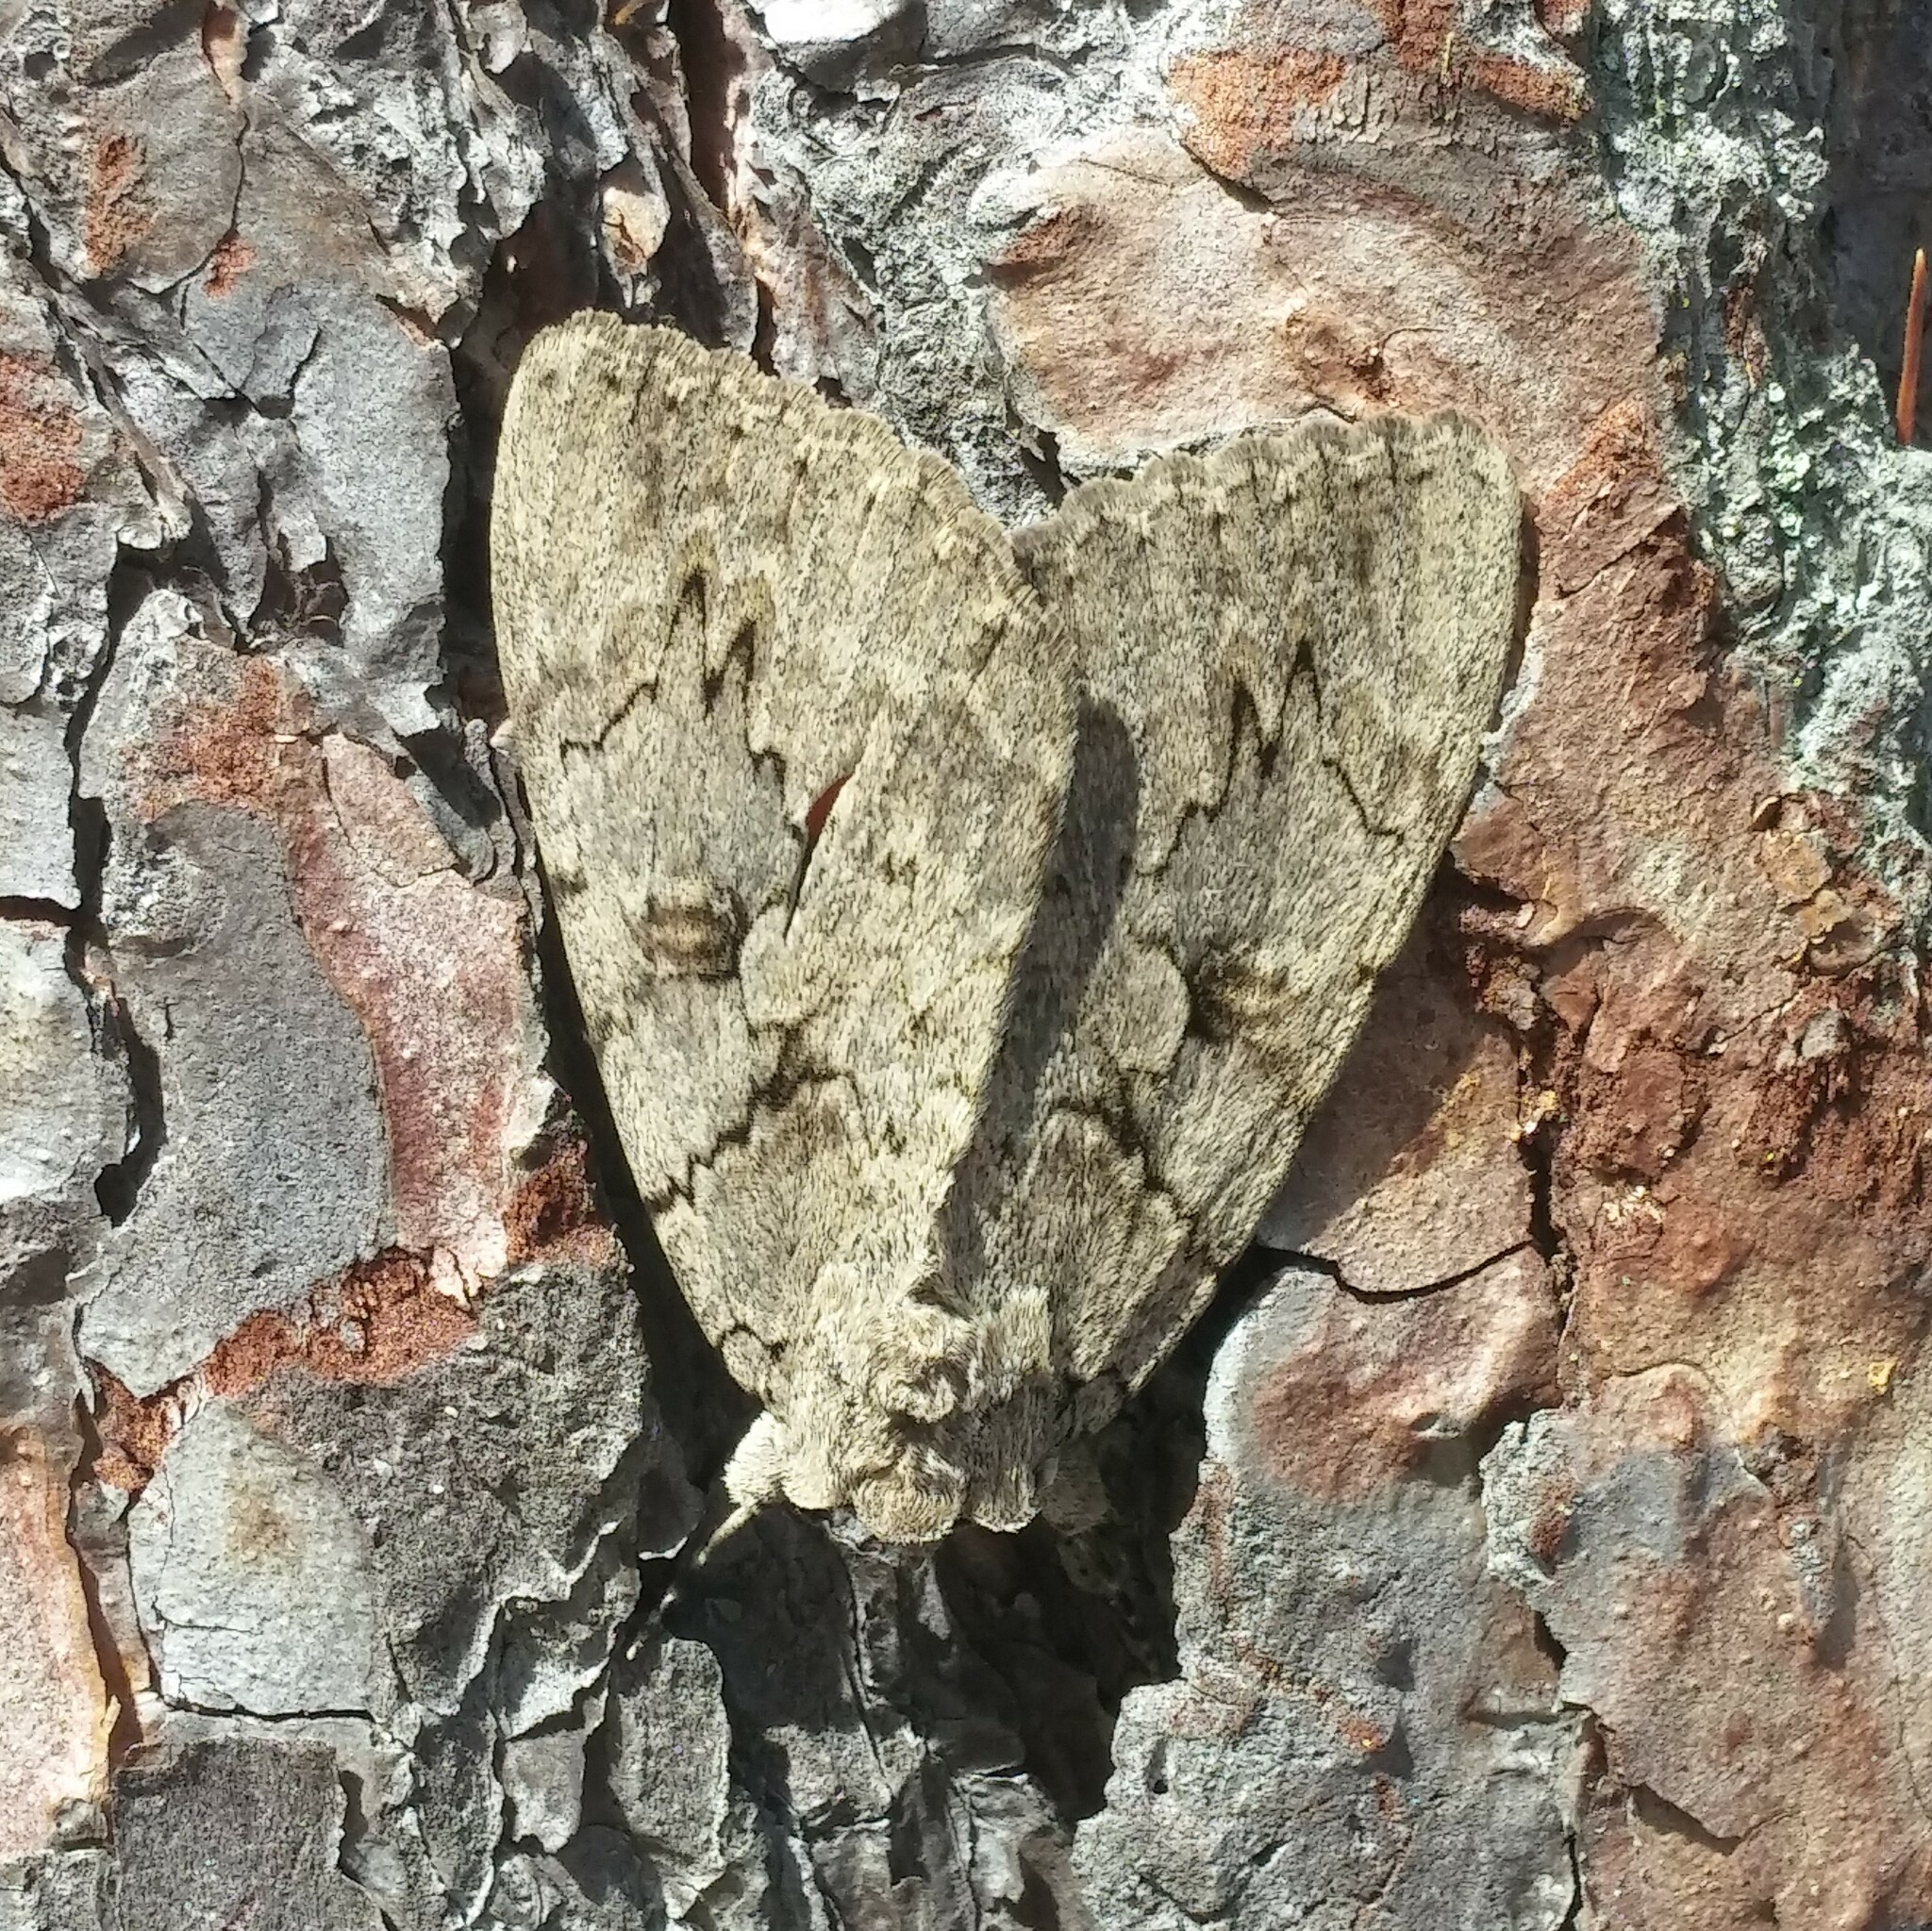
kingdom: Animalia
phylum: Arthropoda
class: Insecta
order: Lepidoptera
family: Erebidae
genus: Catocala
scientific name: Catocala amatrix
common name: Sweetheart underwing
